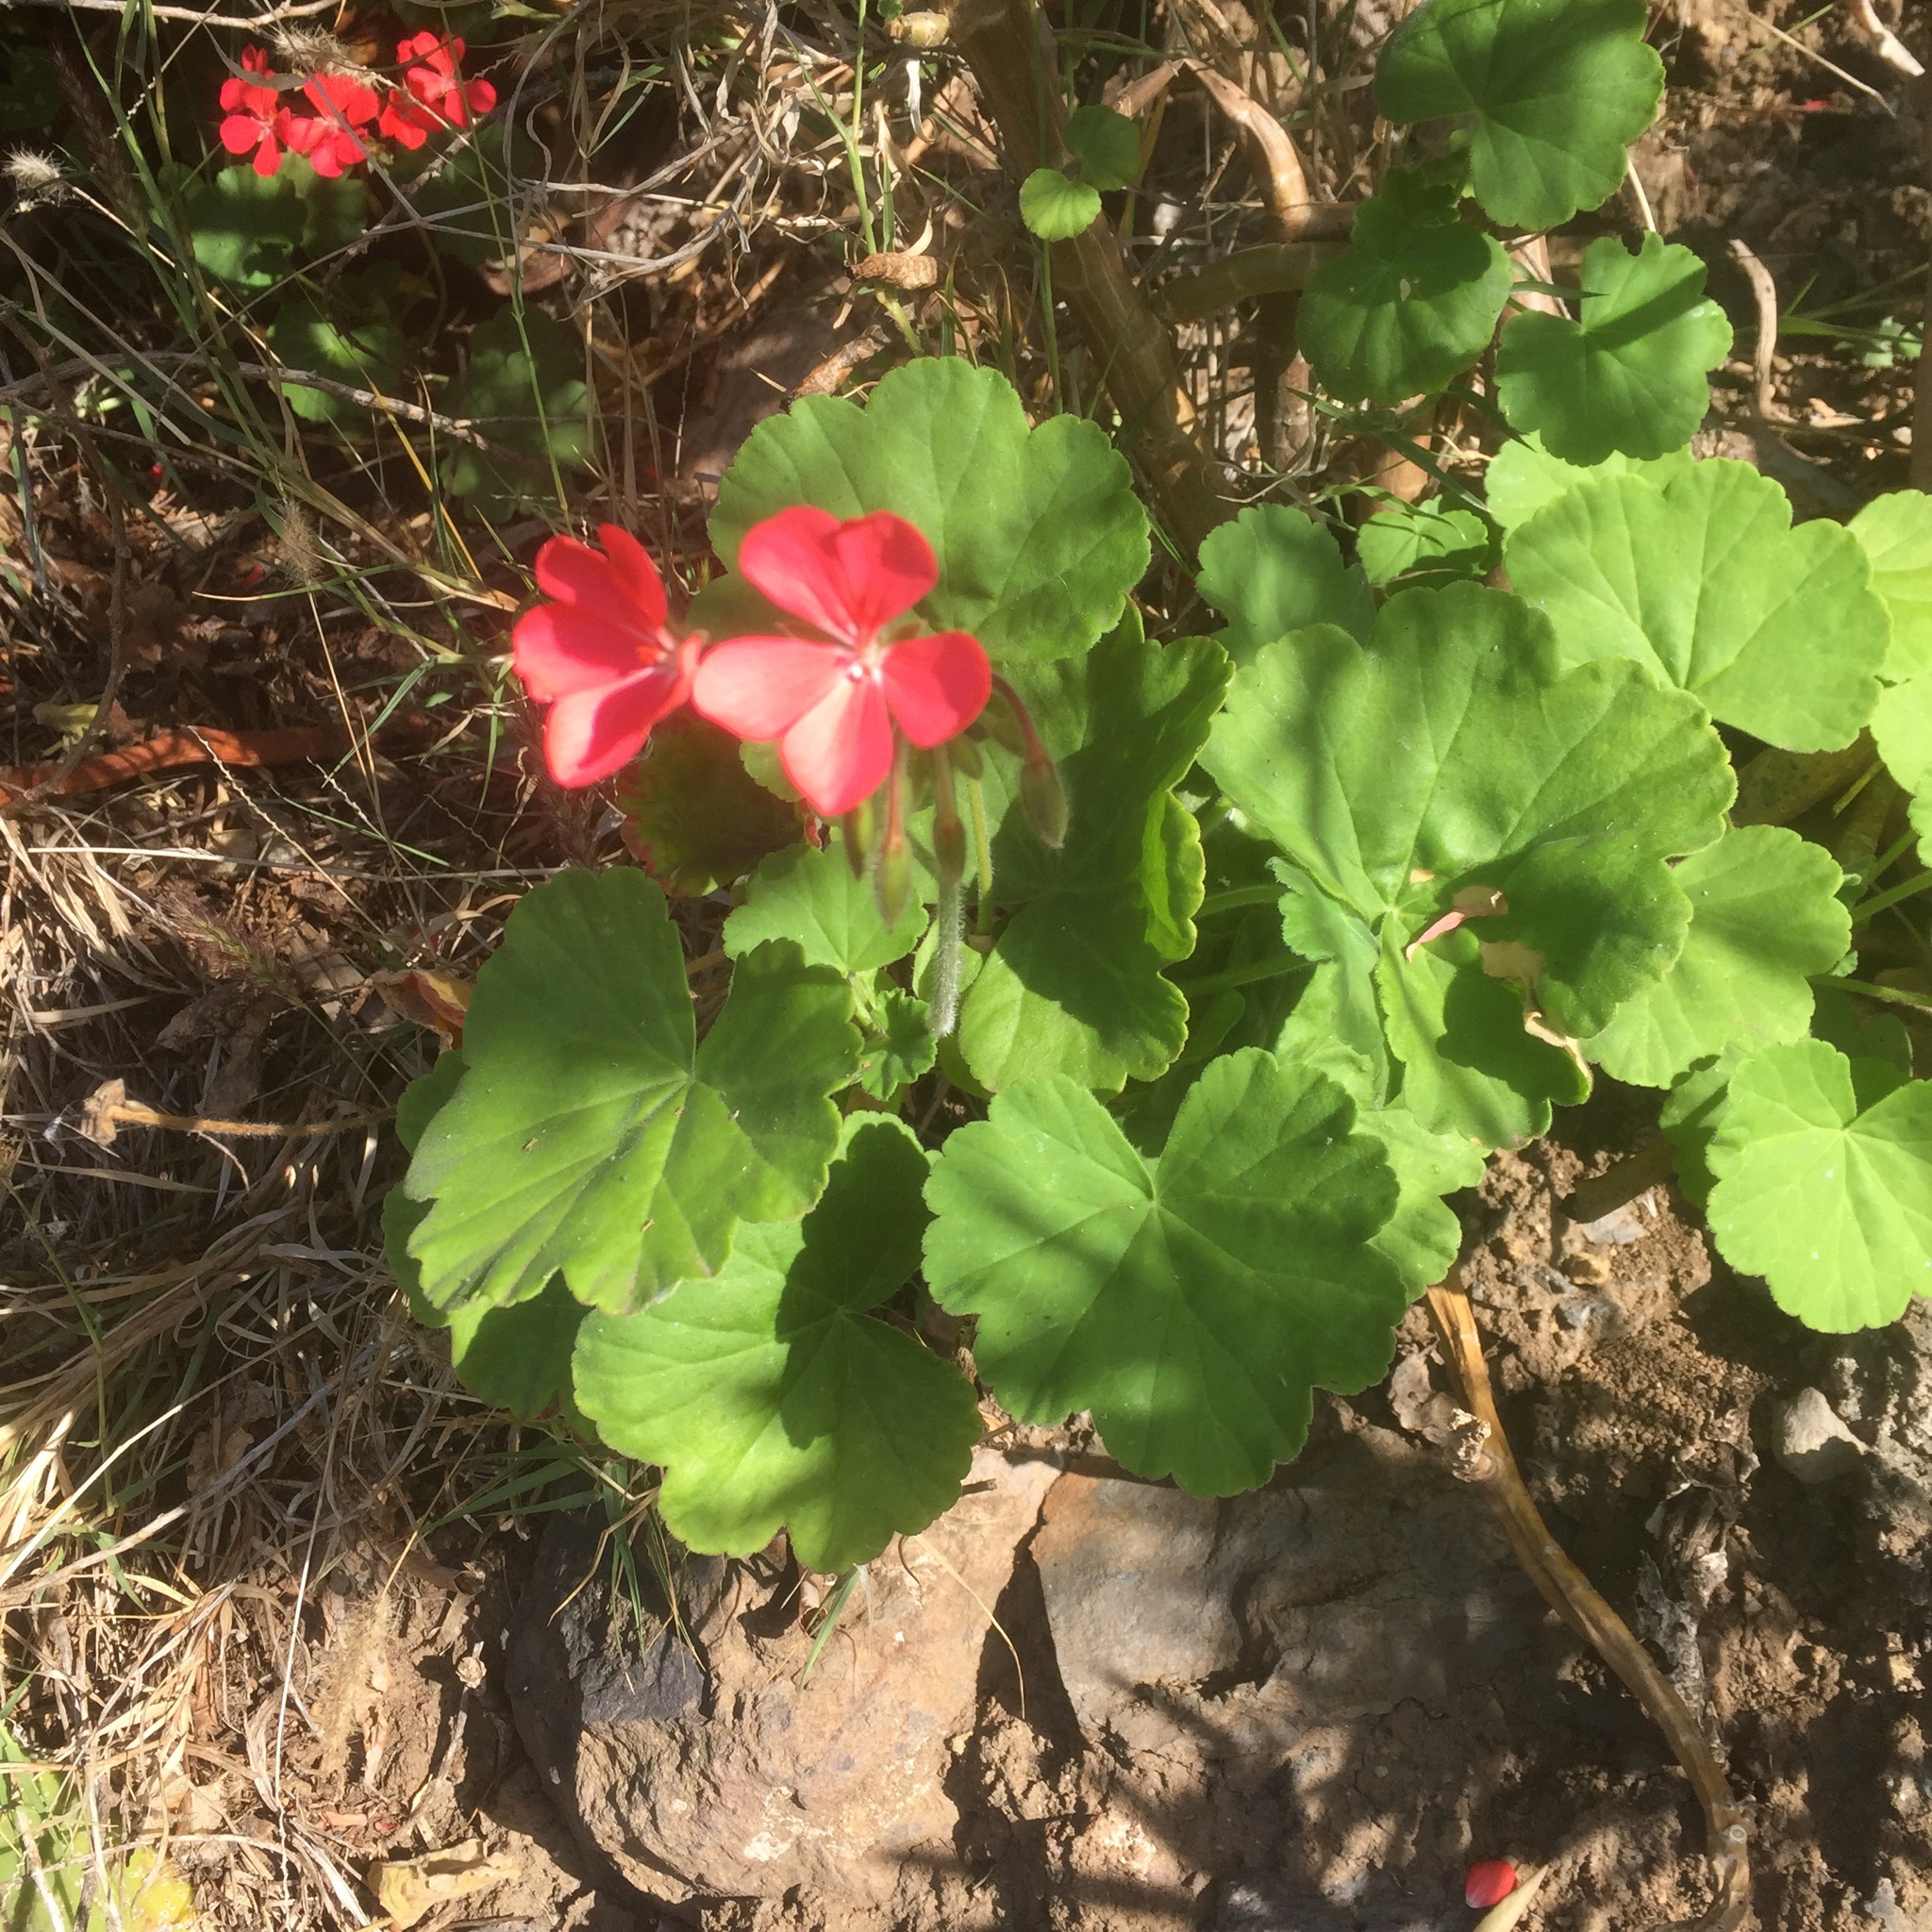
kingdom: Plantae
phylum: Tracheophyta
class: Magnoliopsida
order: Geraniales
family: Geraniaceae
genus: Pelargonium
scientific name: Pelargonium hybridum
